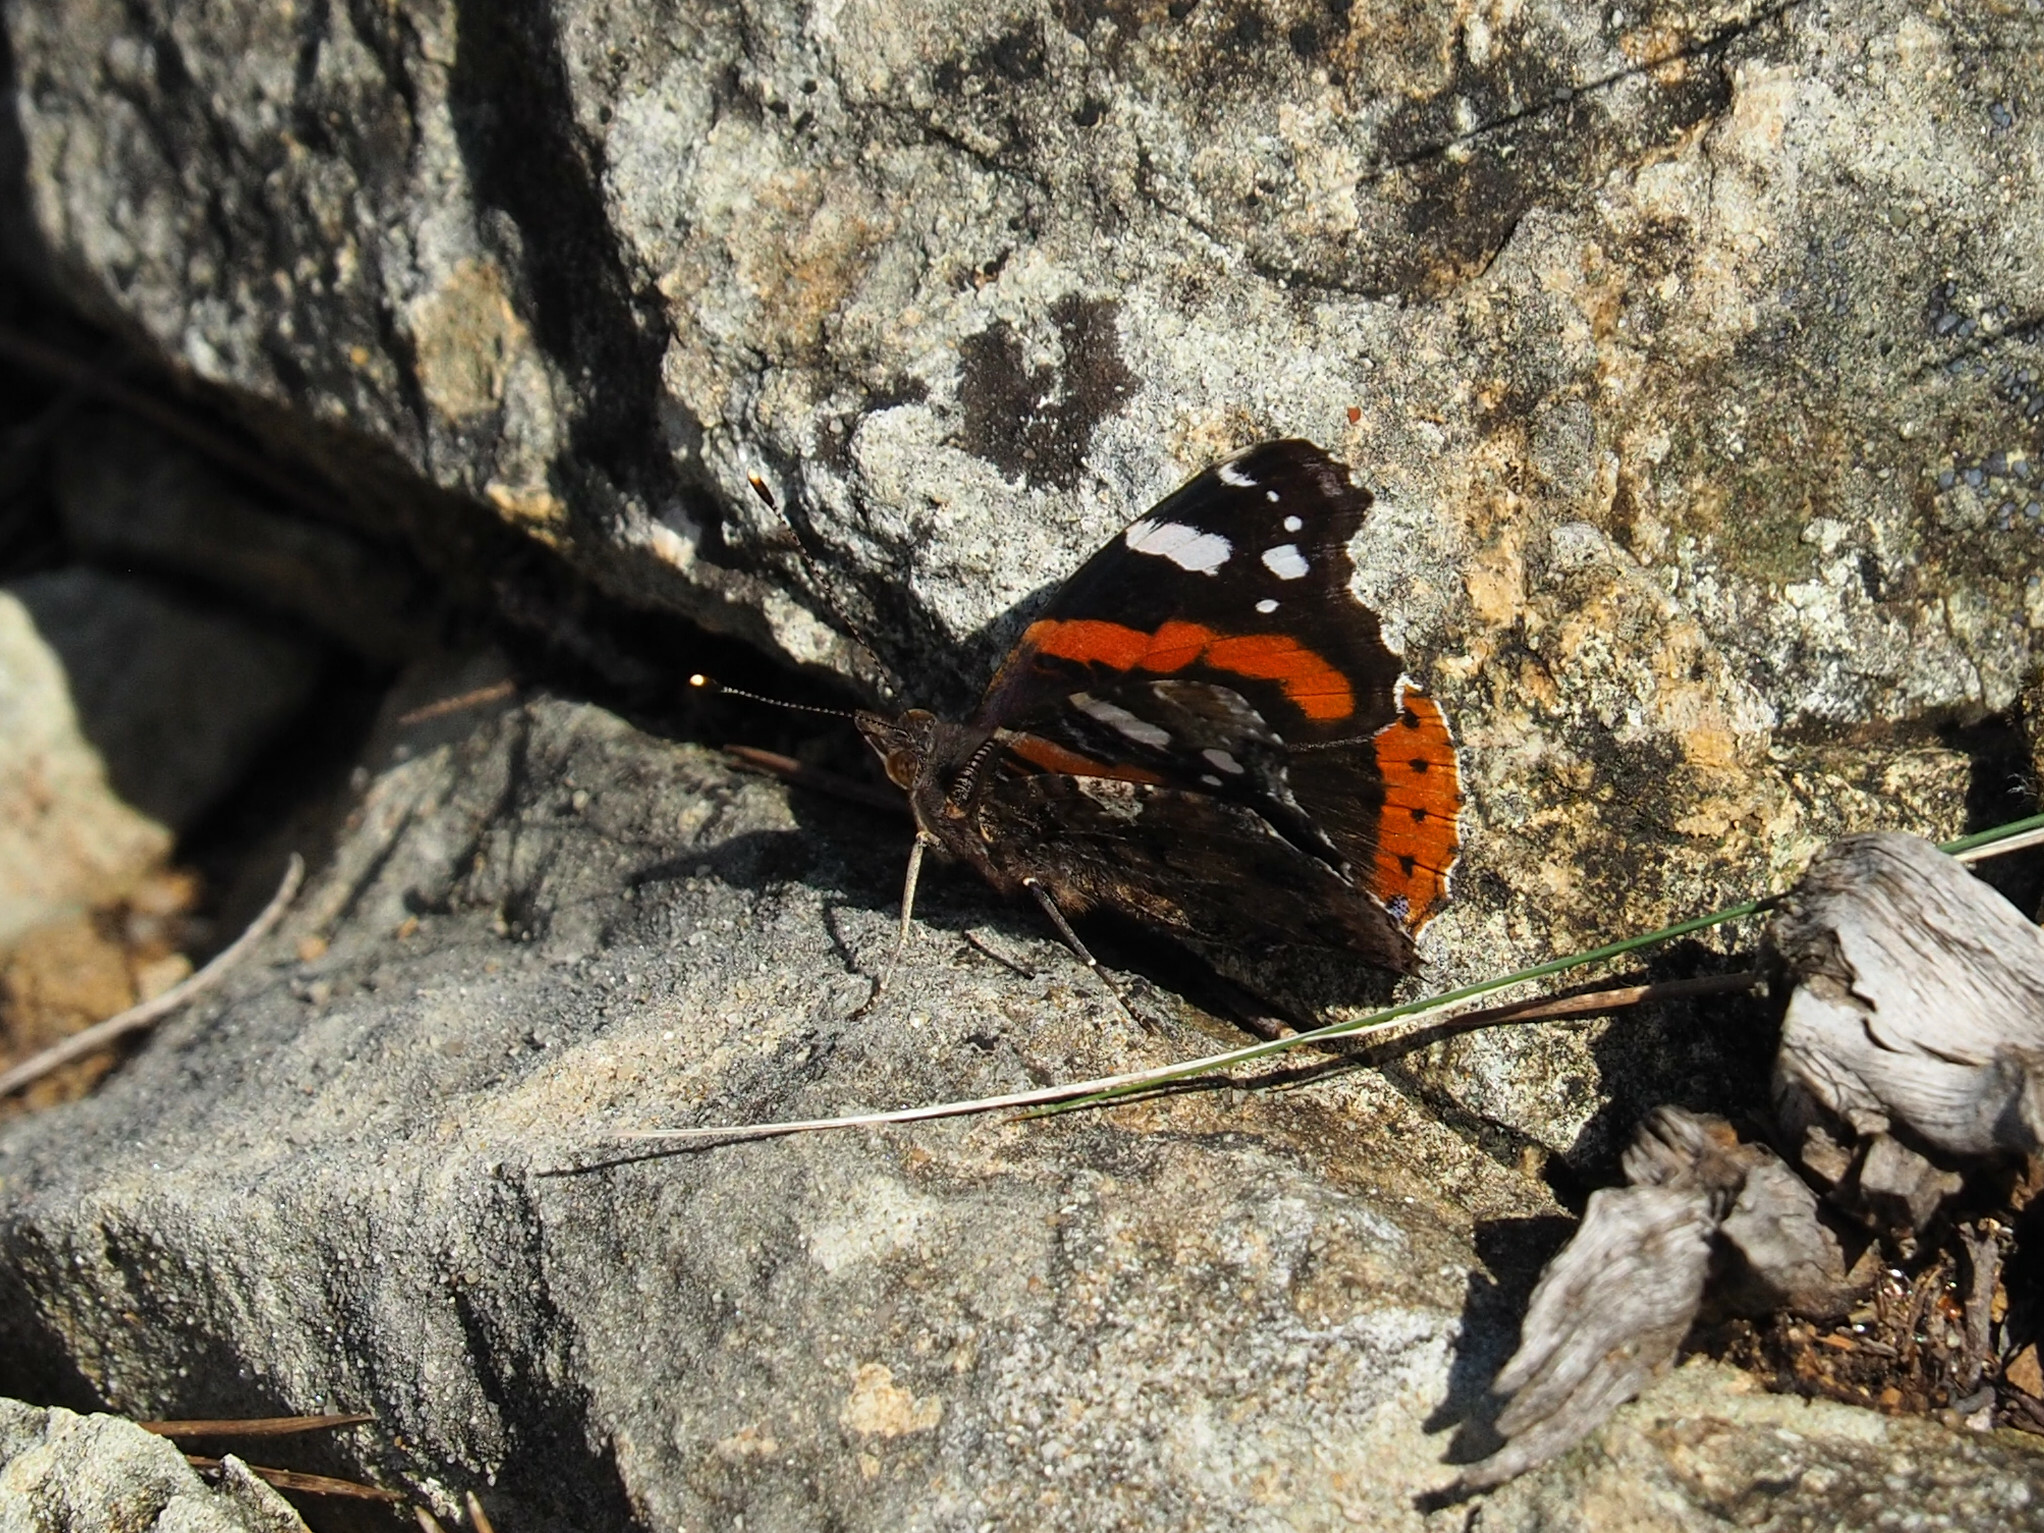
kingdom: Animalia
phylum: Arthropoda
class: Insecta
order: Lepidoptera
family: Nymphalidae
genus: Vanessa
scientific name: Vanessa atalanta
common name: Red admiral
